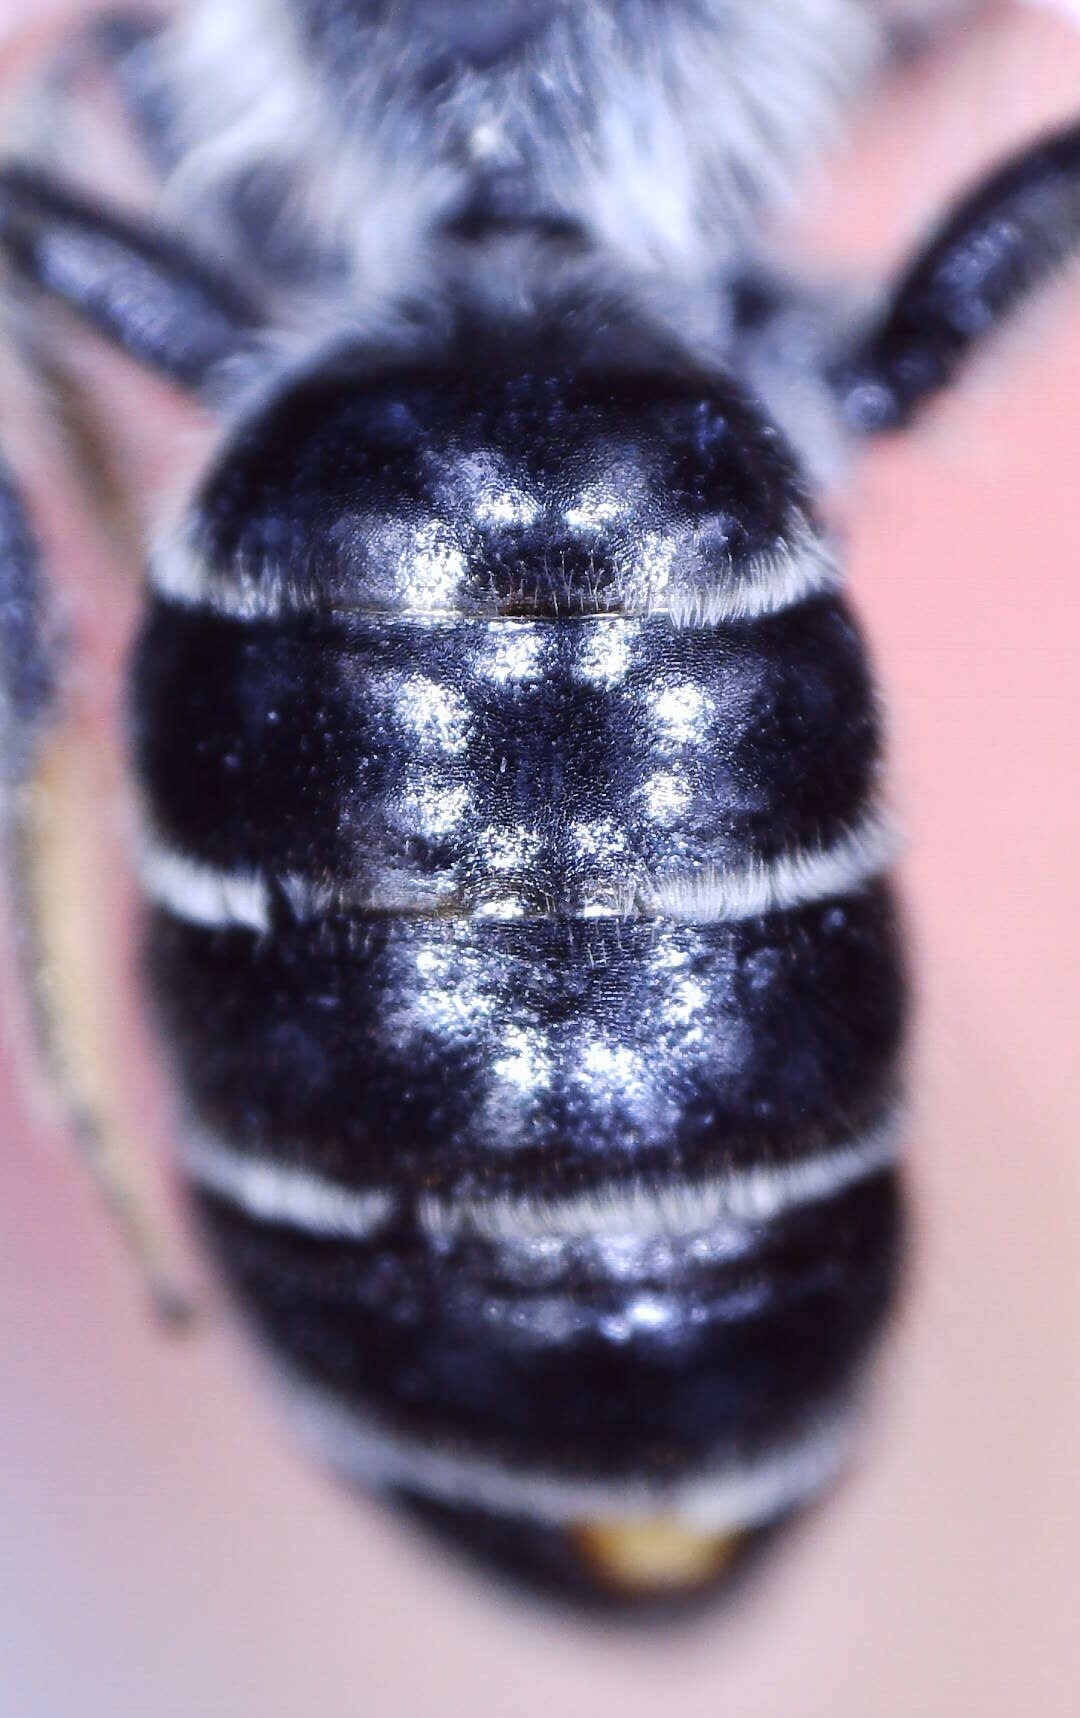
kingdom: Animalia
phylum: Arthropoda
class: Insecta
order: Hymenoptera
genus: Callandrena
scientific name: Callandrena
